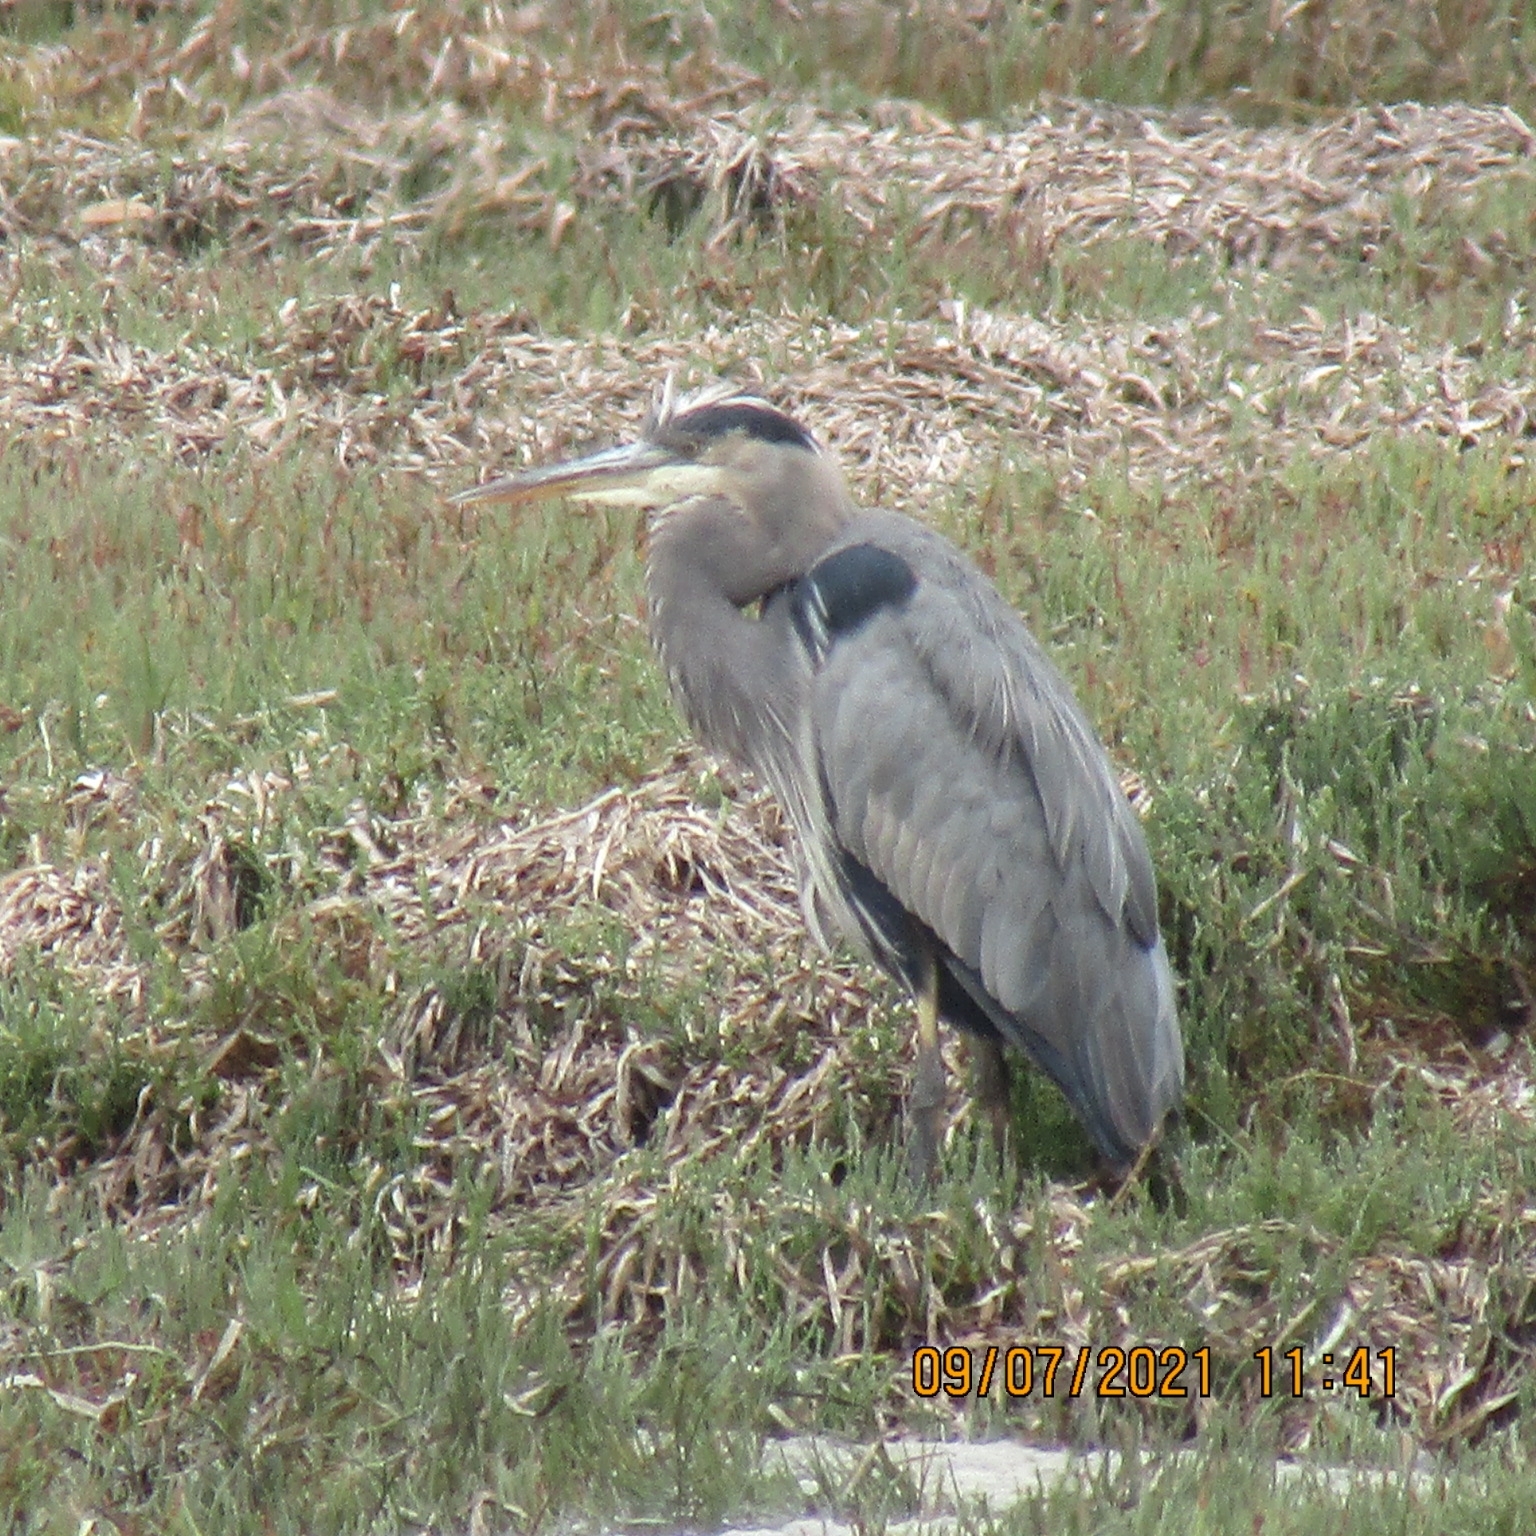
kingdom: Animalia
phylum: Chordata
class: Aves
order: Pelecaniformes
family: Ardeidae
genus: Ardea
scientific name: Ardea herodias
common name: Great blue heron
